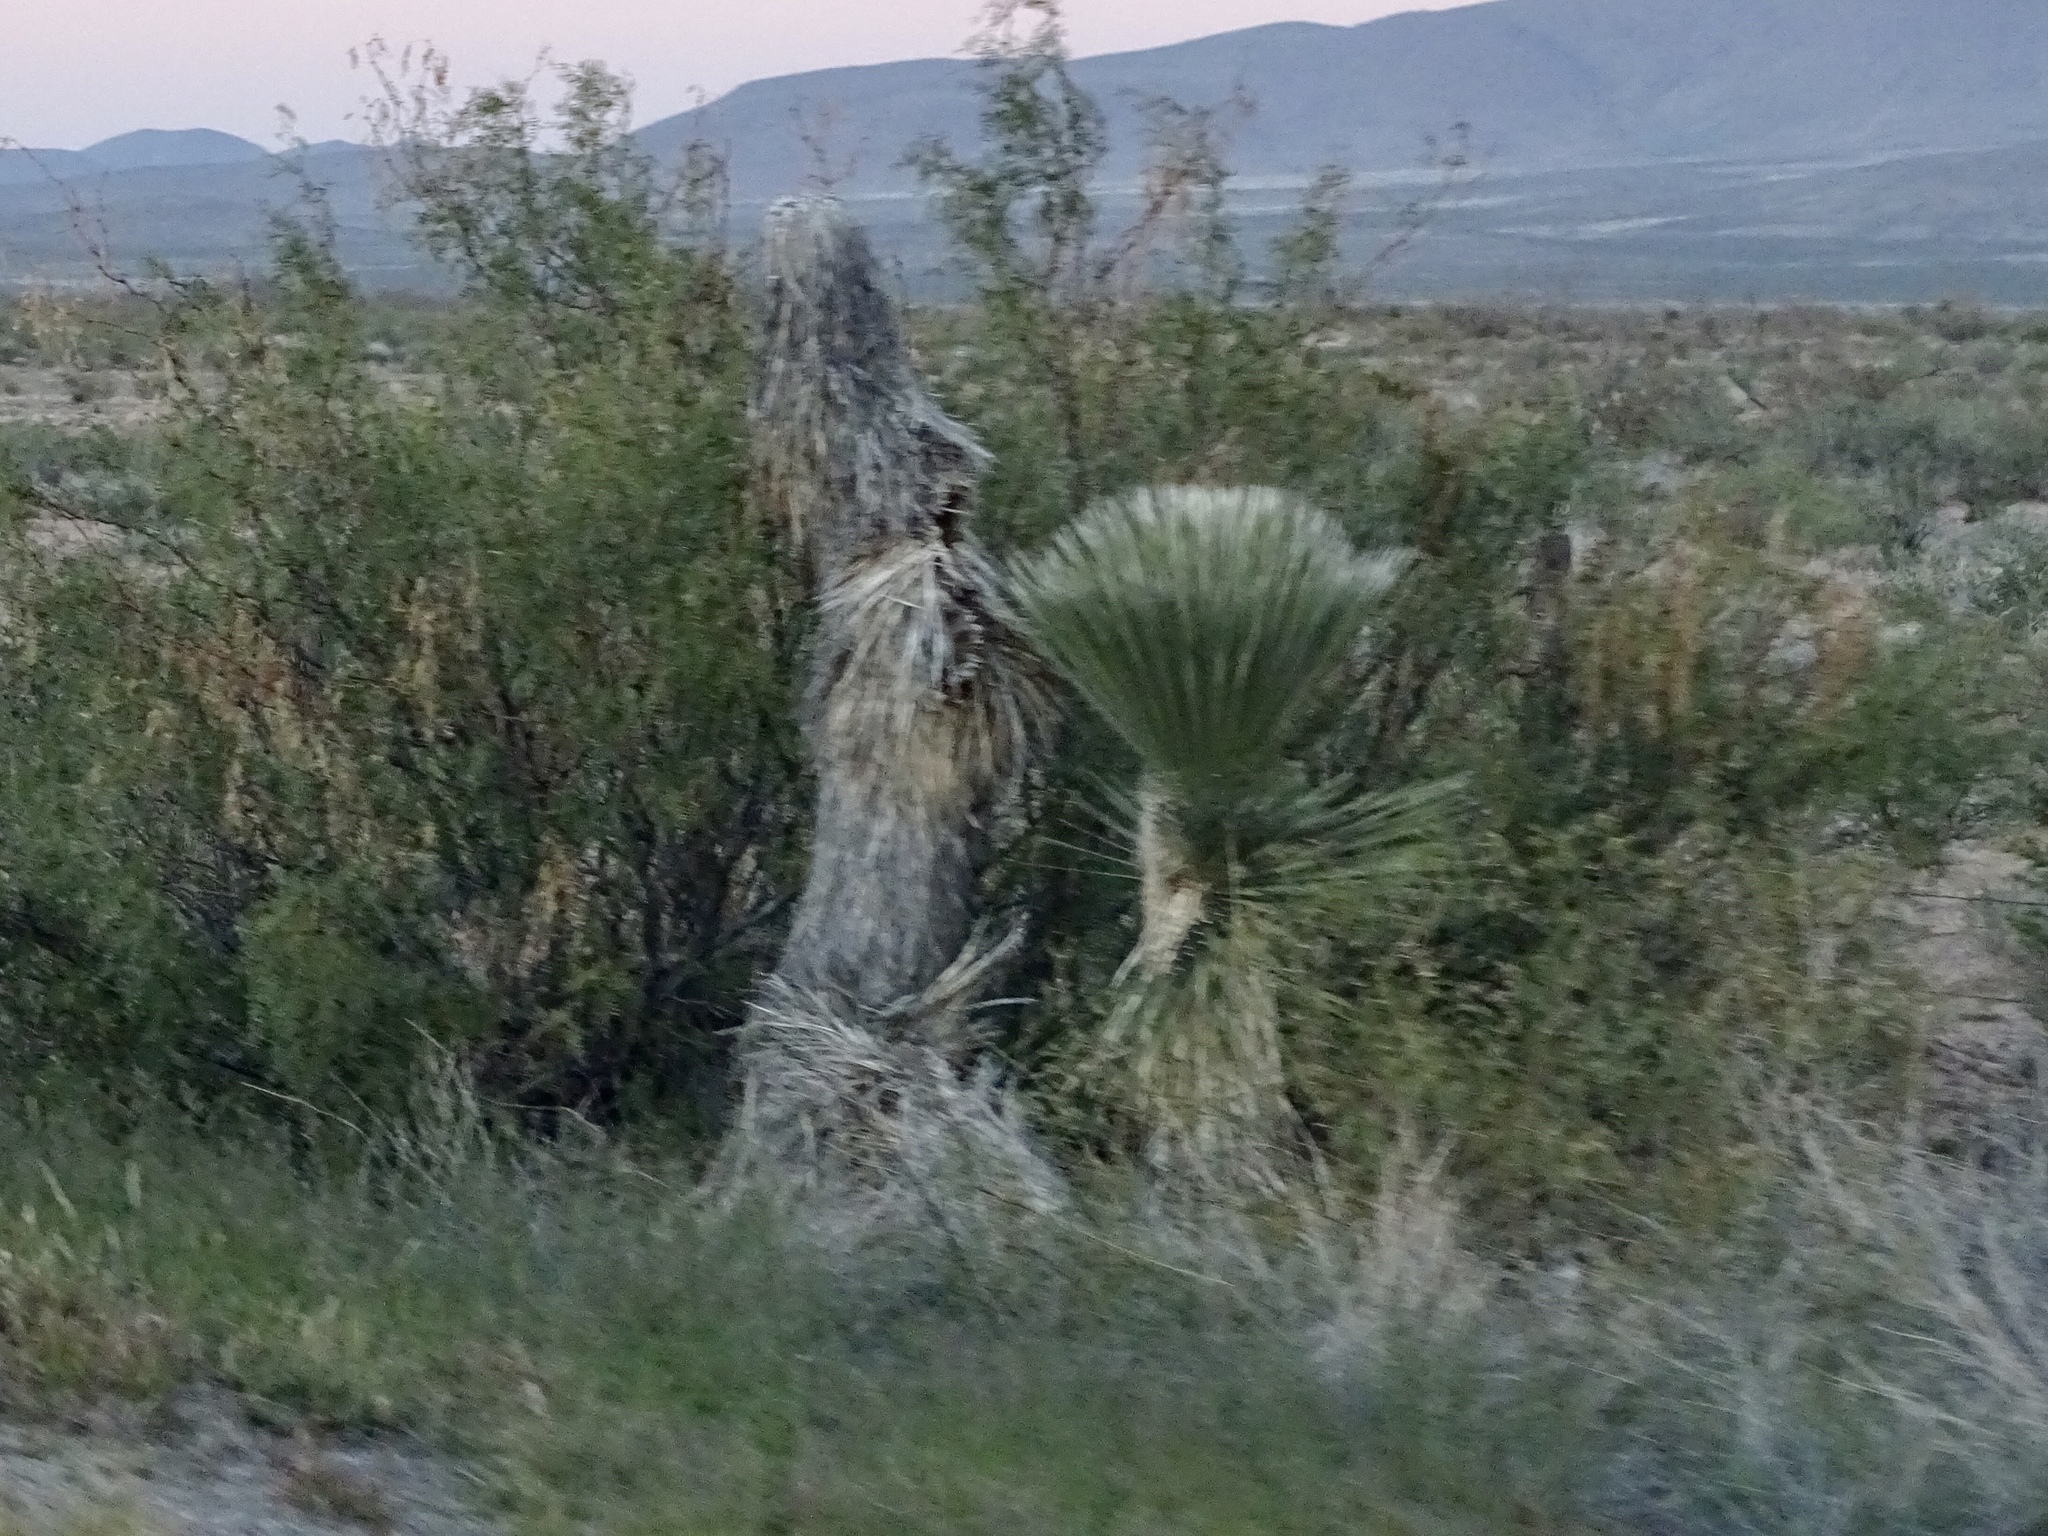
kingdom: Plantae
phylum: Tracheophyta
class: Liliopsida
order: Asparagales
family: Asparagaceae
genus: Yucca
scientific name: Yucca elata
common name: Palmella
